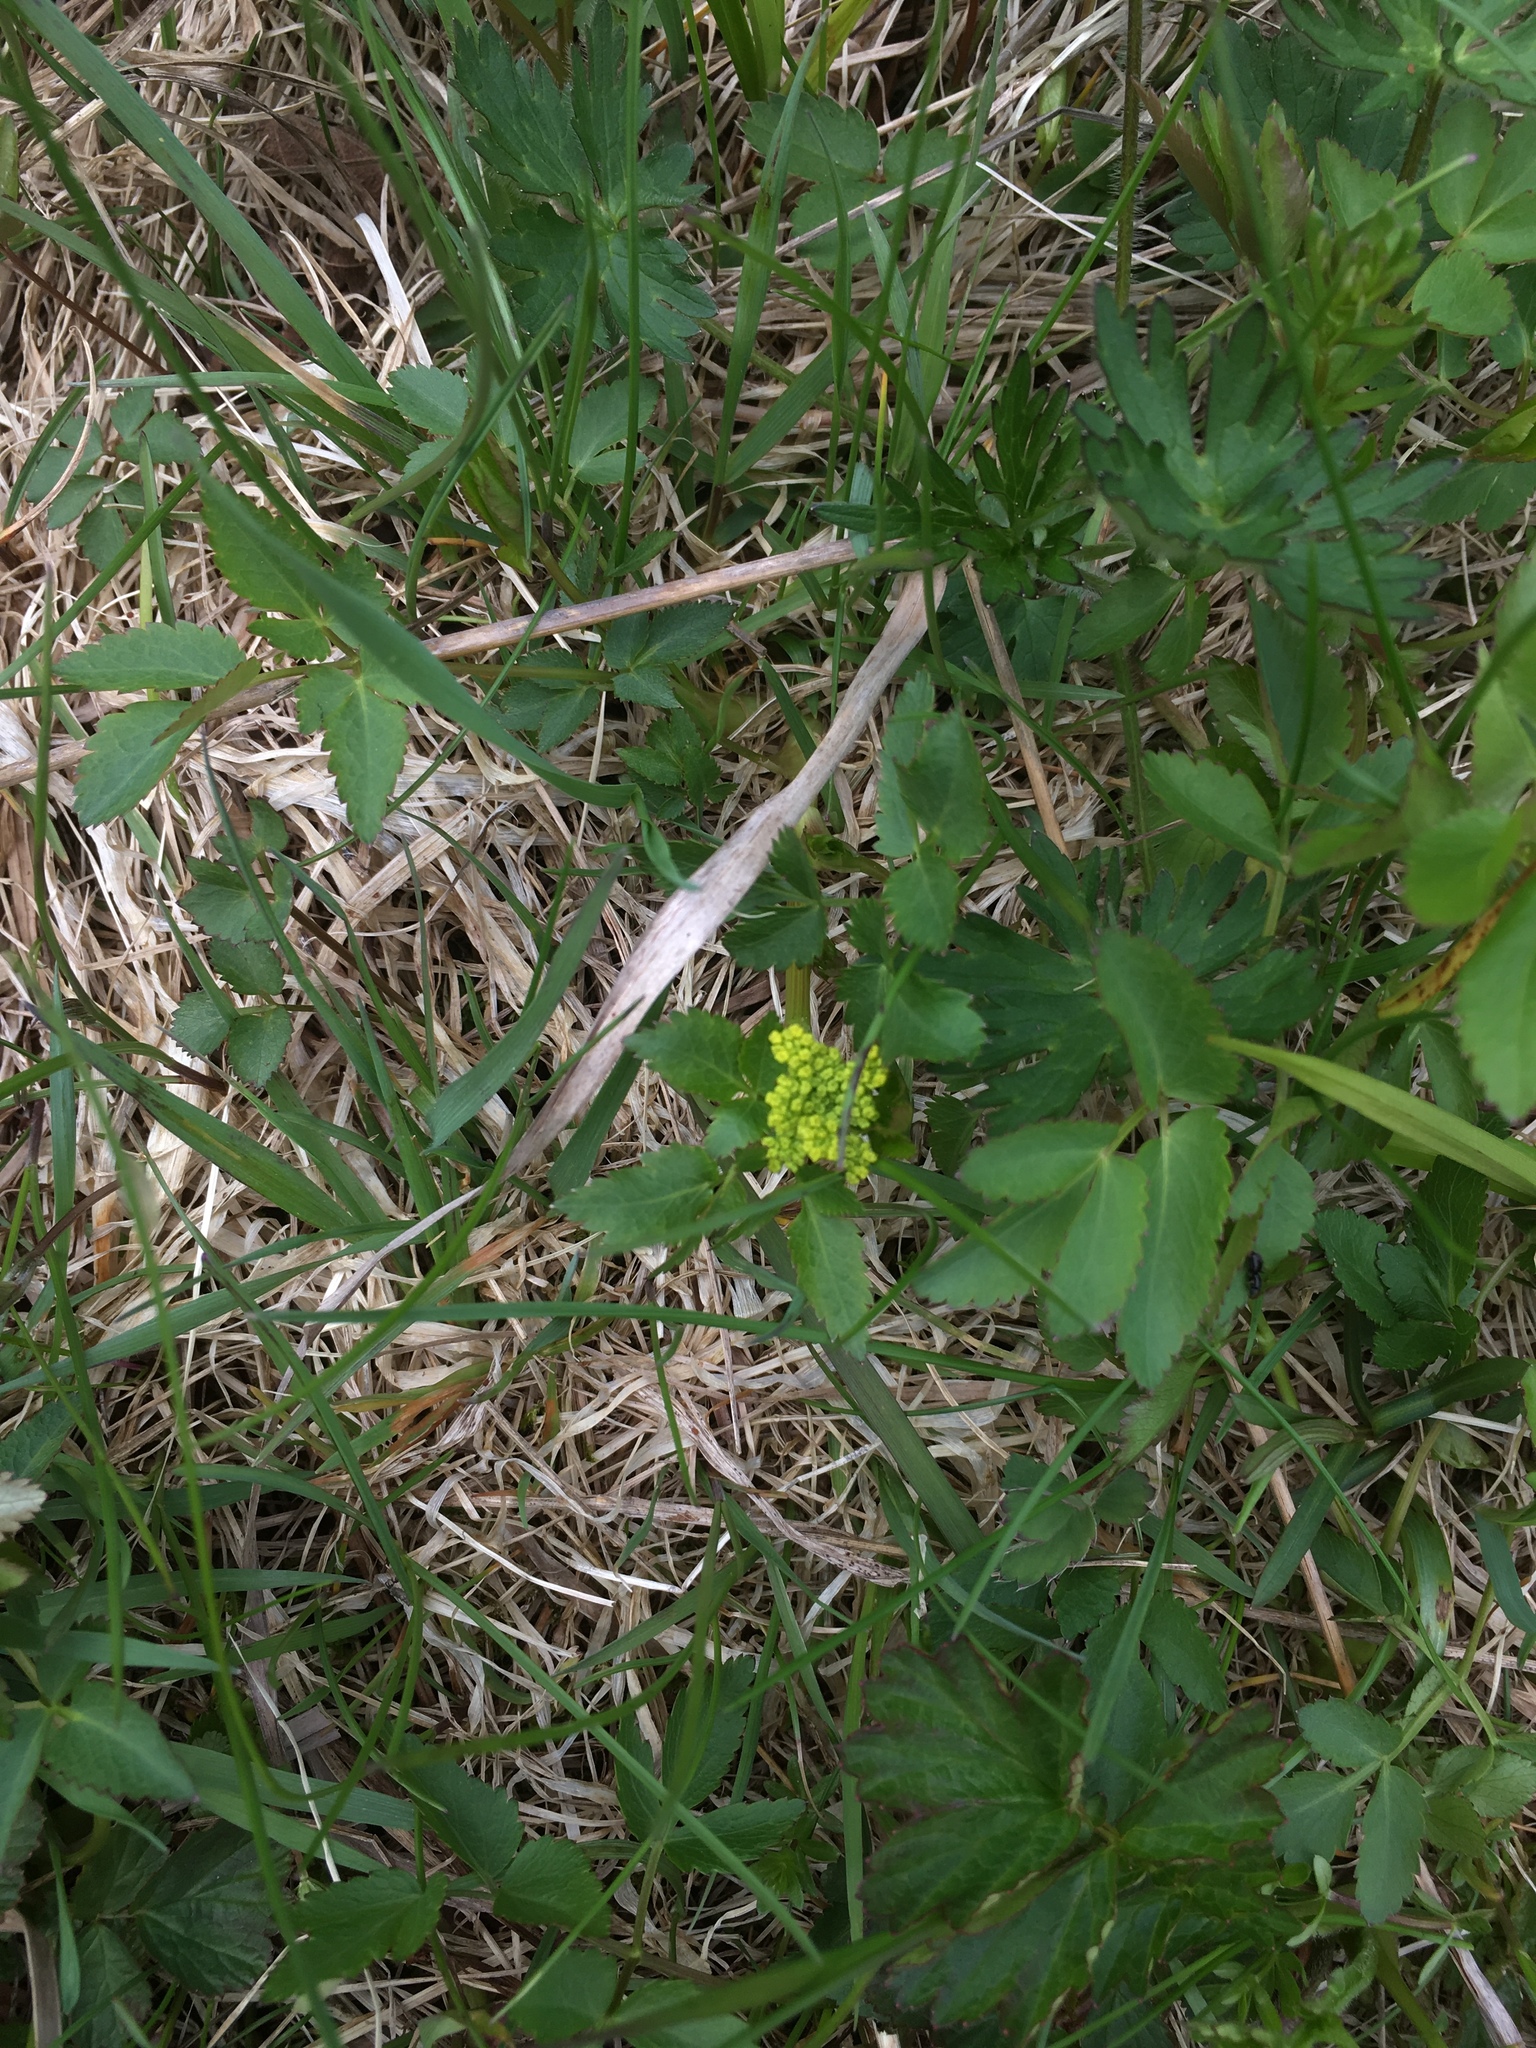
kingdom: Plantae
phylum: Tracheophyta
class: Magnoliopsida
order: Apiales
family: Apiaceae
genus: Zizia
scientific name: Zizia aurea
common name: Golden alexanders
